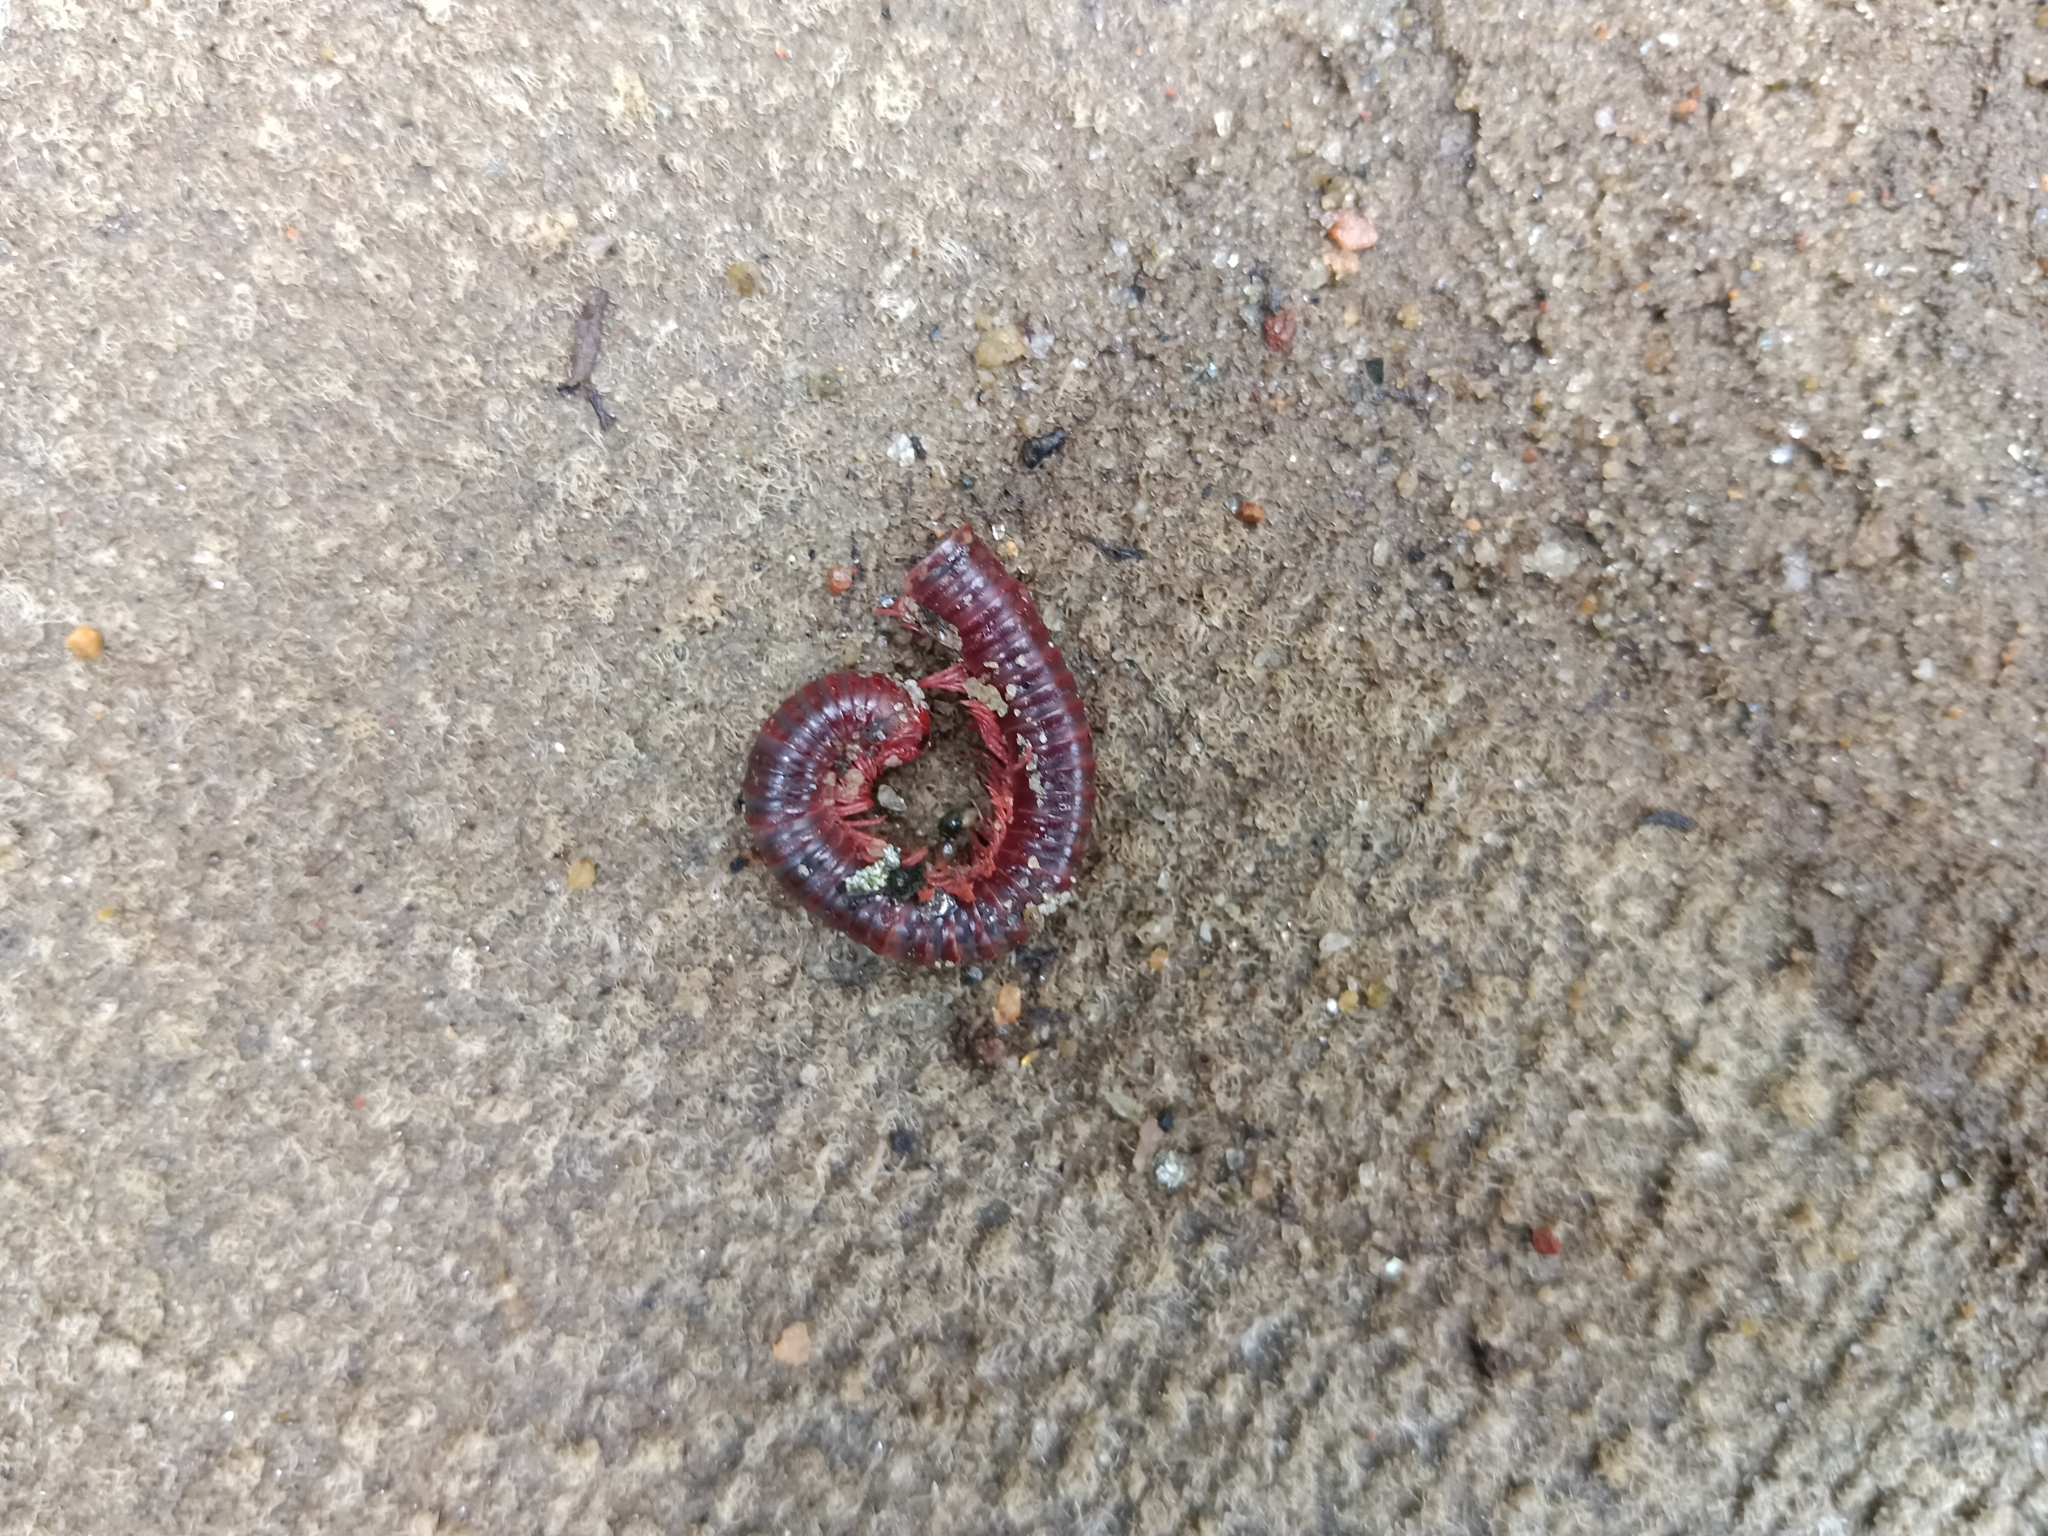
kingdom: Animalia
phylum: Arthropoda
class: Diplopoda
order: Spirobolida
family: Pachybolidae
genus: Trigoniulus
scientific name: Trigoniulus corallinus
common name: Millipede
